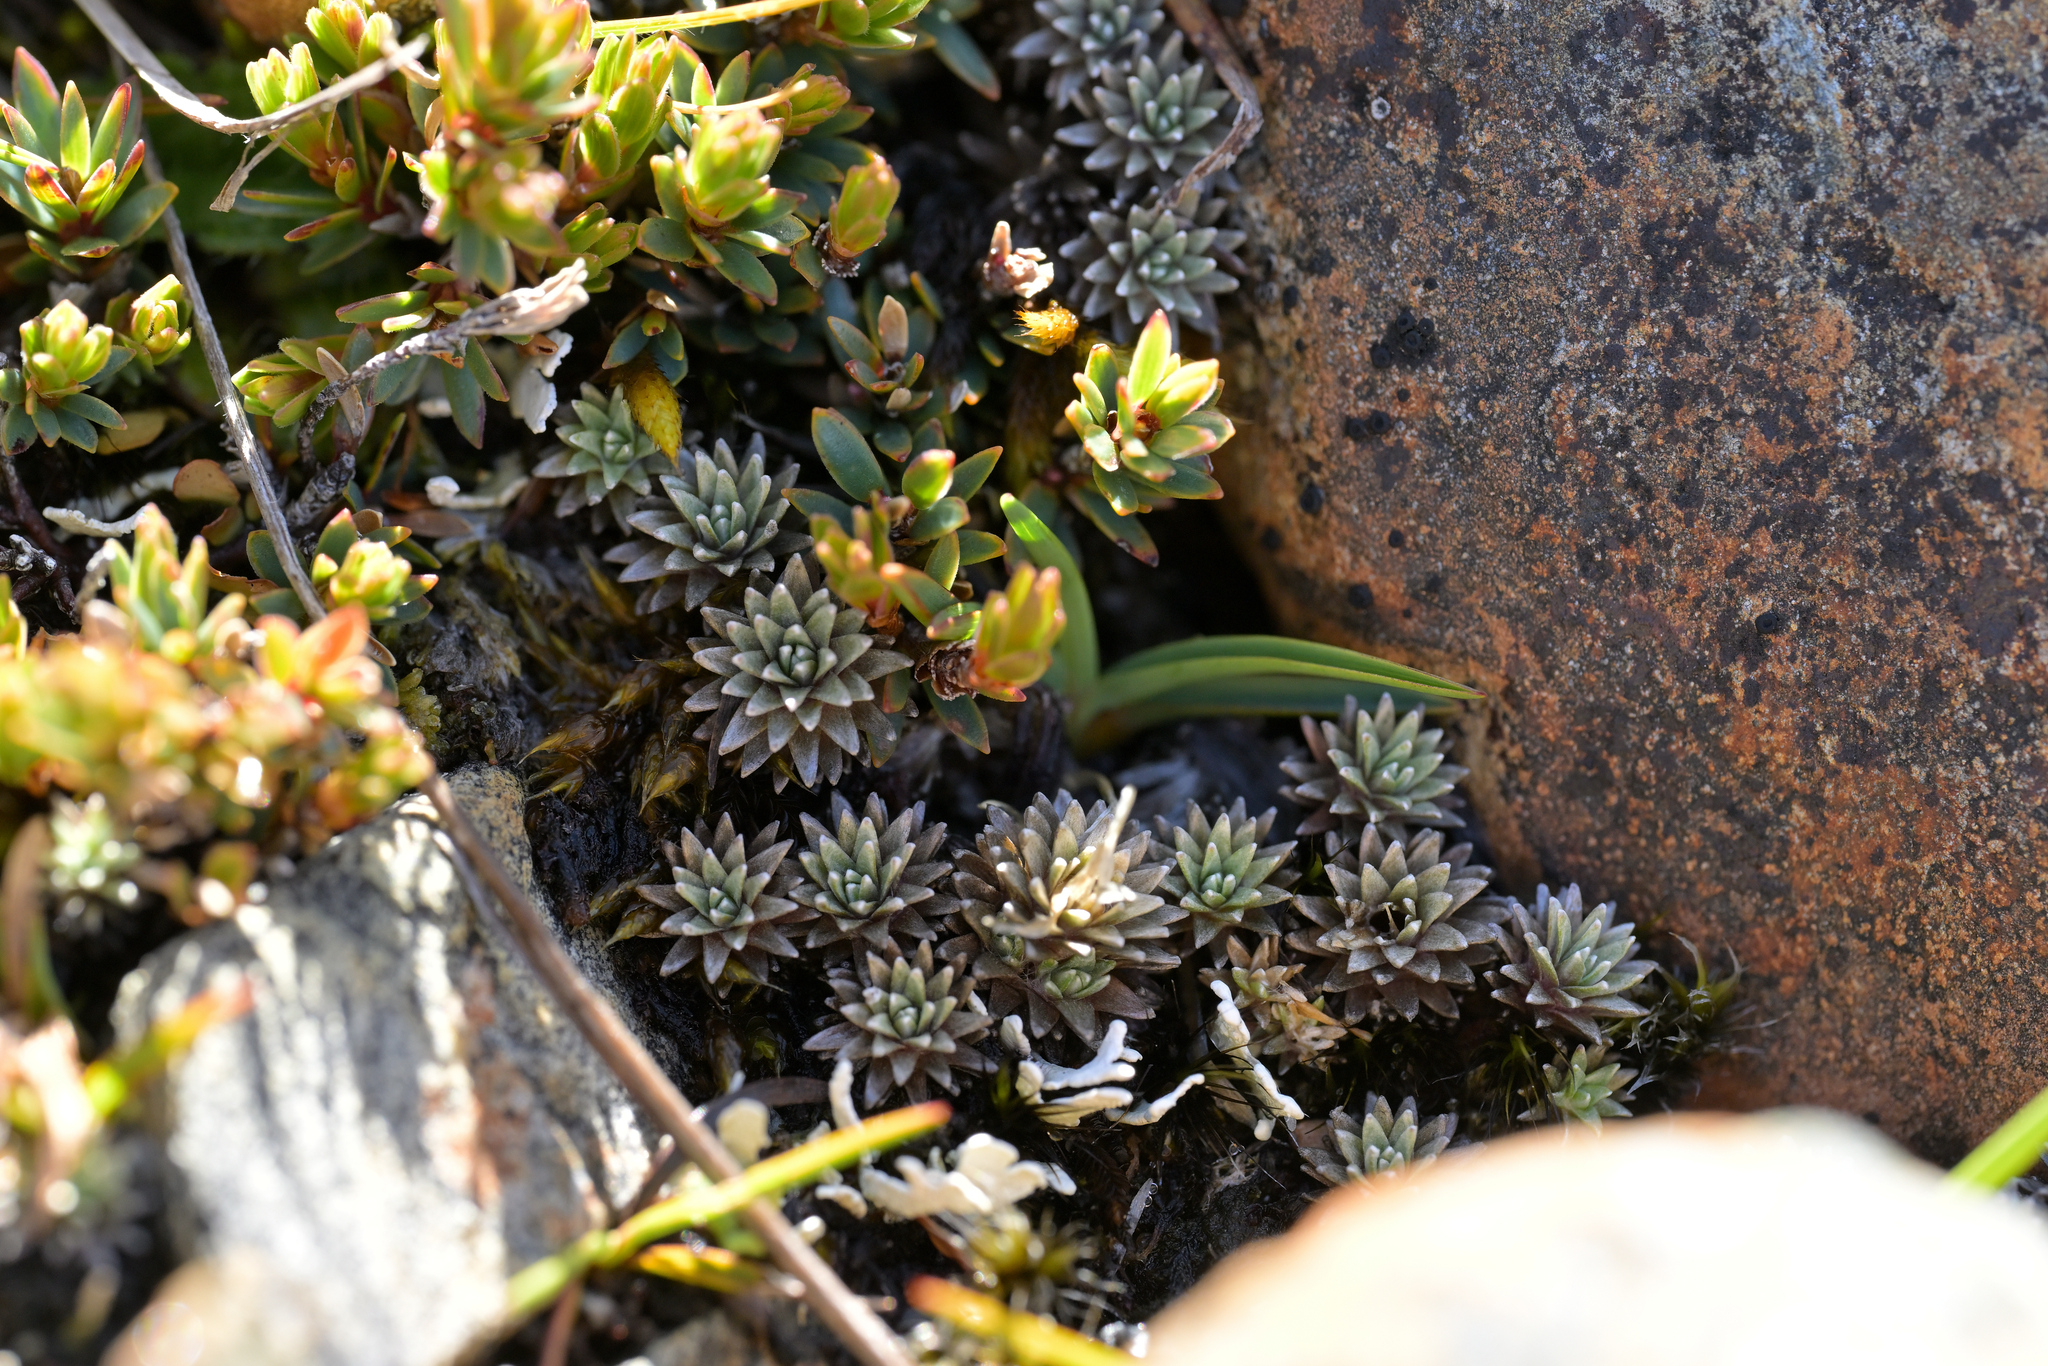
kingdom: Plantae
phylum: Tracheophyta
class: Magnoliopsida
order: Asterales
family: Asteraceae
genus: Raoulia
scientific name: Raoulia grandiflora
